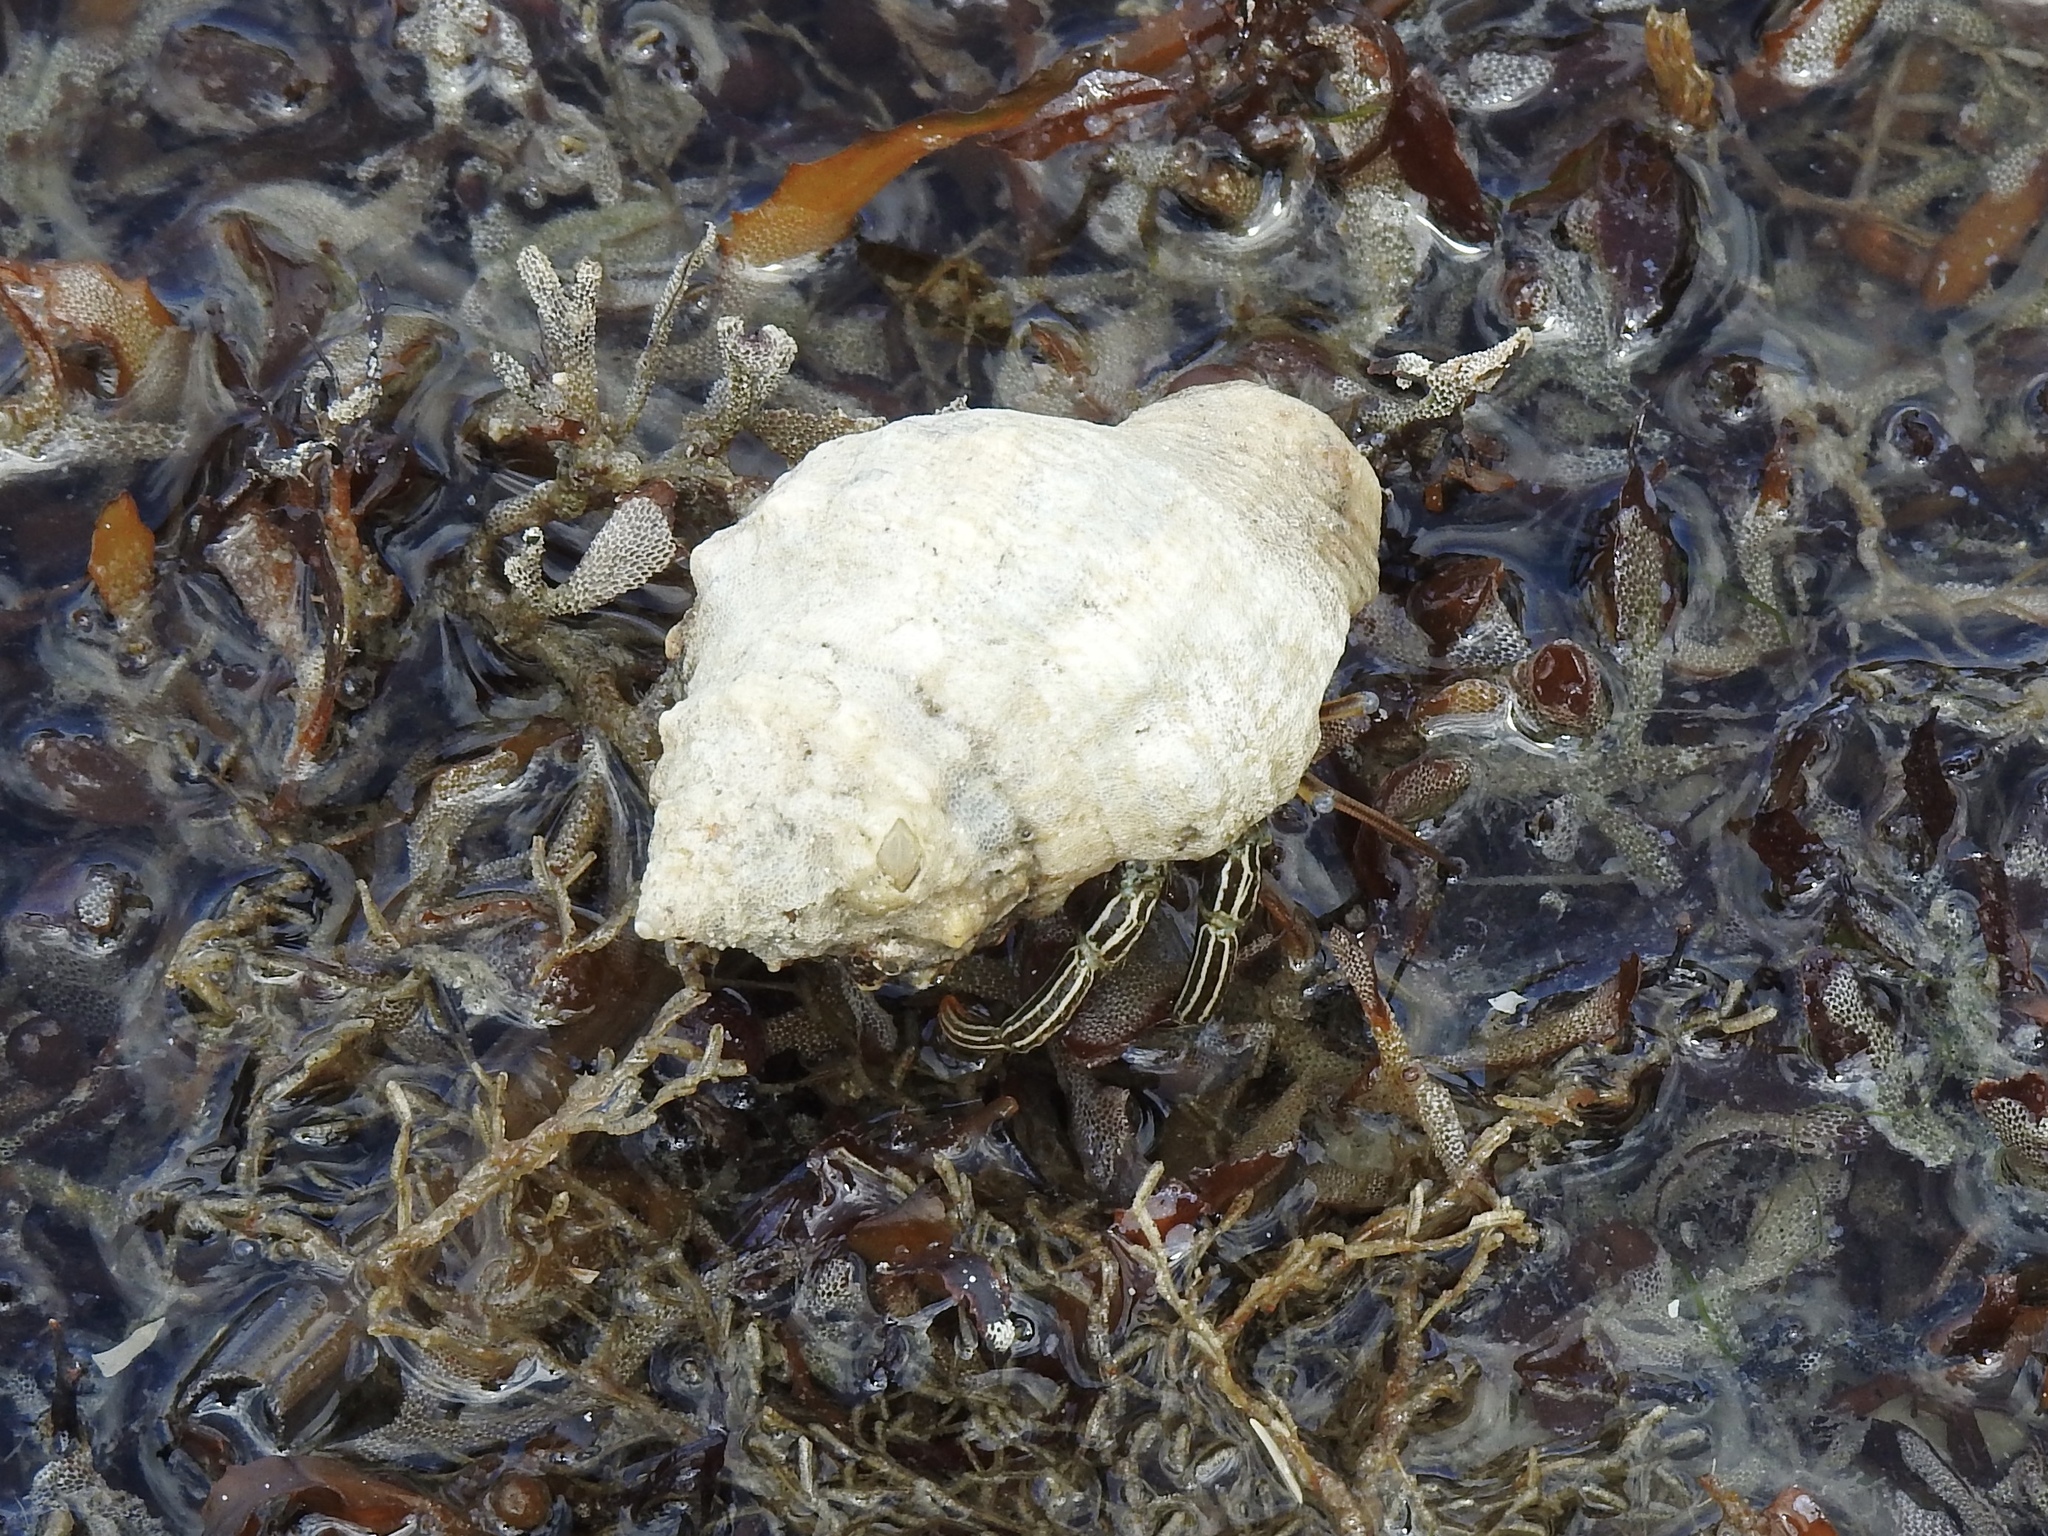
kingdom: Animalia
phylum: Arthropoda
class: Malacostraca
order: Decapoda
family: Diogenidae
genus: Clibanarius
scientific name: Clibanarius vittatus
